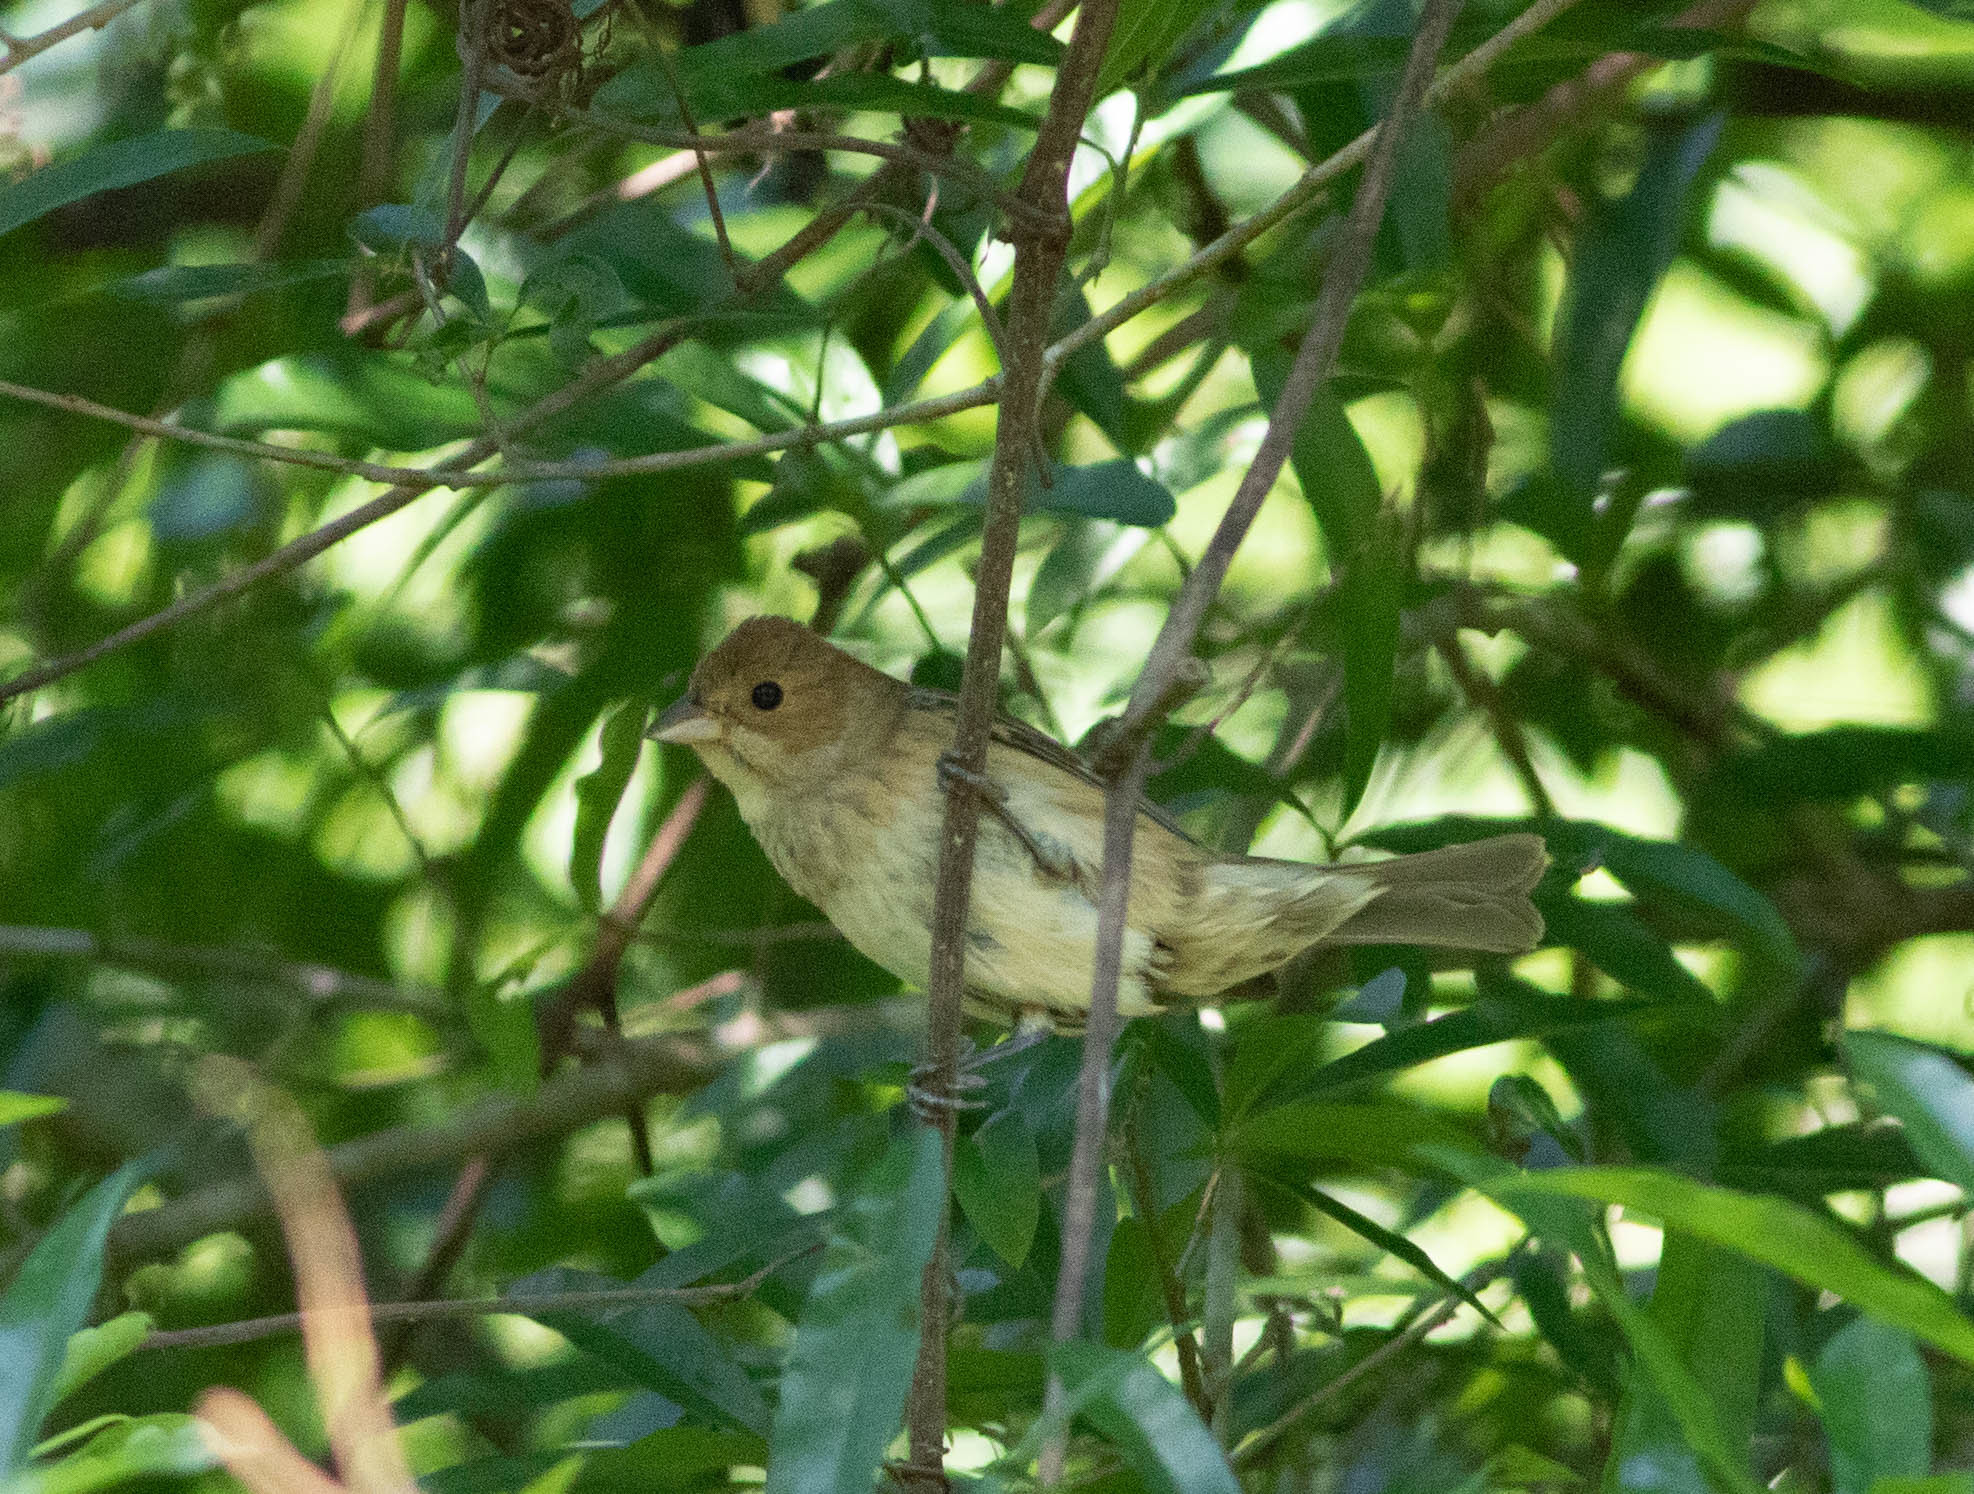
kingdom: Animalia
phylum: Chordata
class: Aves
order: Passeriformes
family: Cardinalidae
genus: Passerina
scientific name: Passerina cyanea
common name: Indigo bunting
